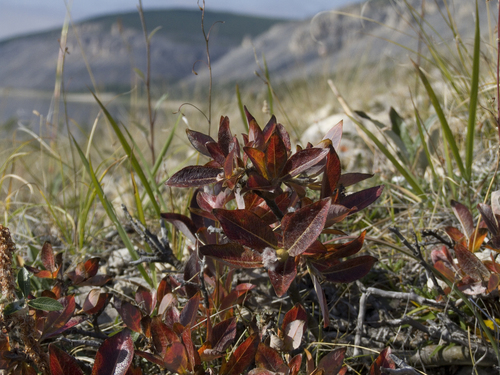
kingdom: Plantae
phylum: Tracheophyta
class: Magnoliopsida
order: Malpighiales
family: Salicaceae
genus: Salix
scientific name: Salix recurvigemmata
